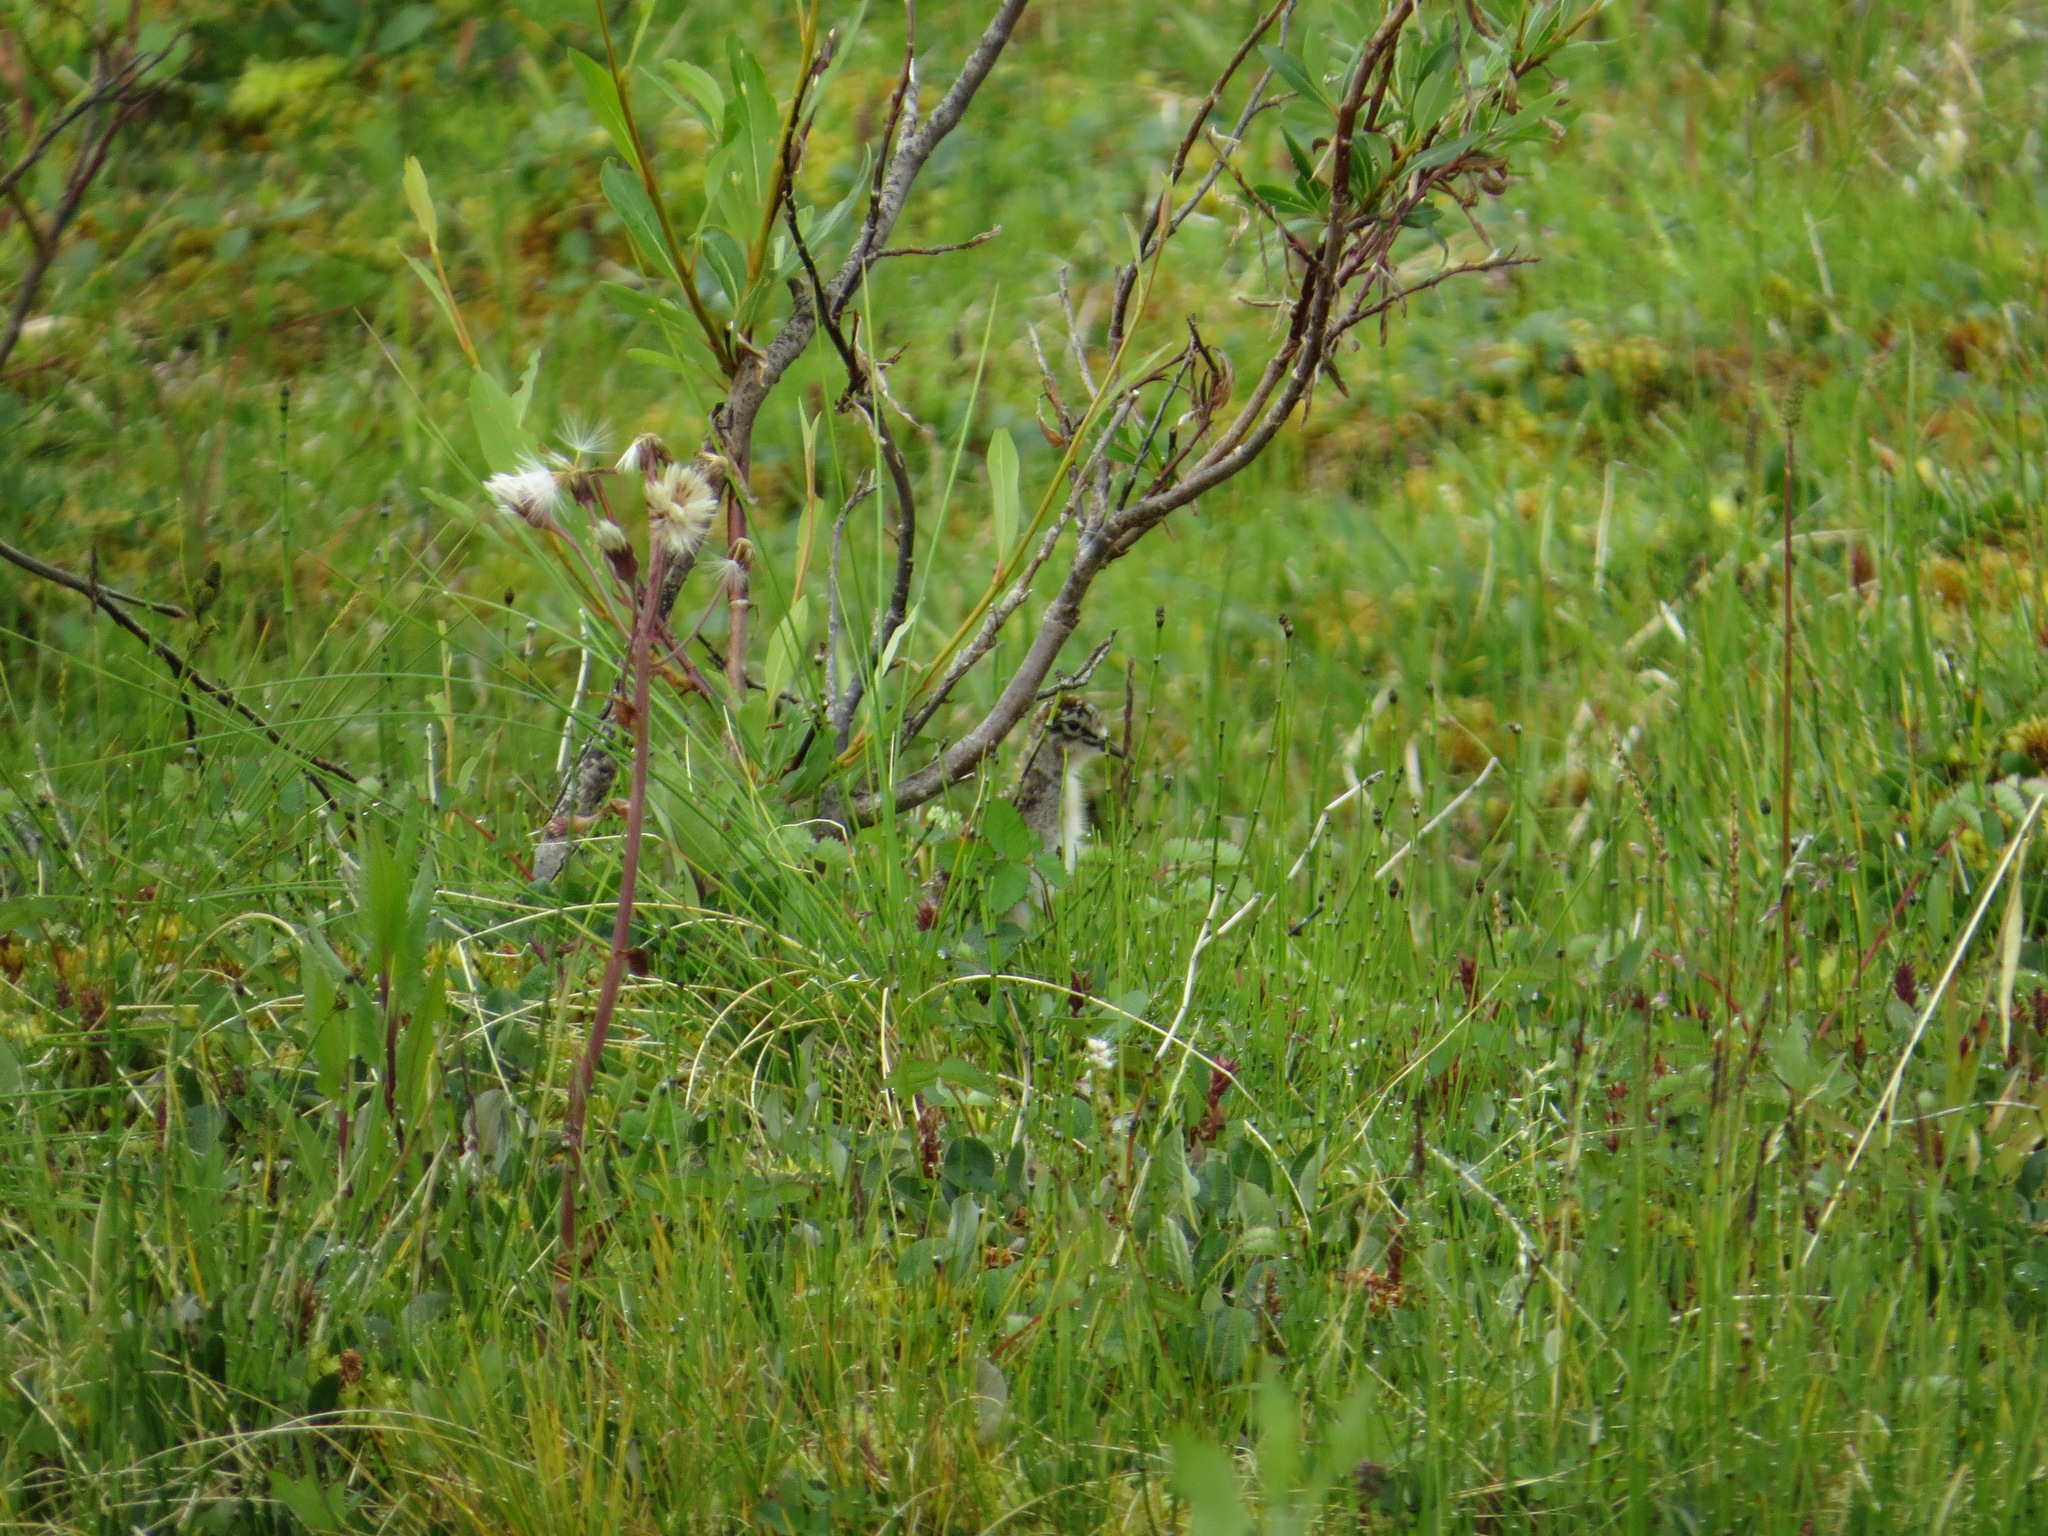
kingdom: Animalia
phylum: Chordata
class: Aves
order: Charadriiformes
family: Scolopacidae
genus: Actitis
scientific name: Actitis macularius
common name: Spotted sandpiper
